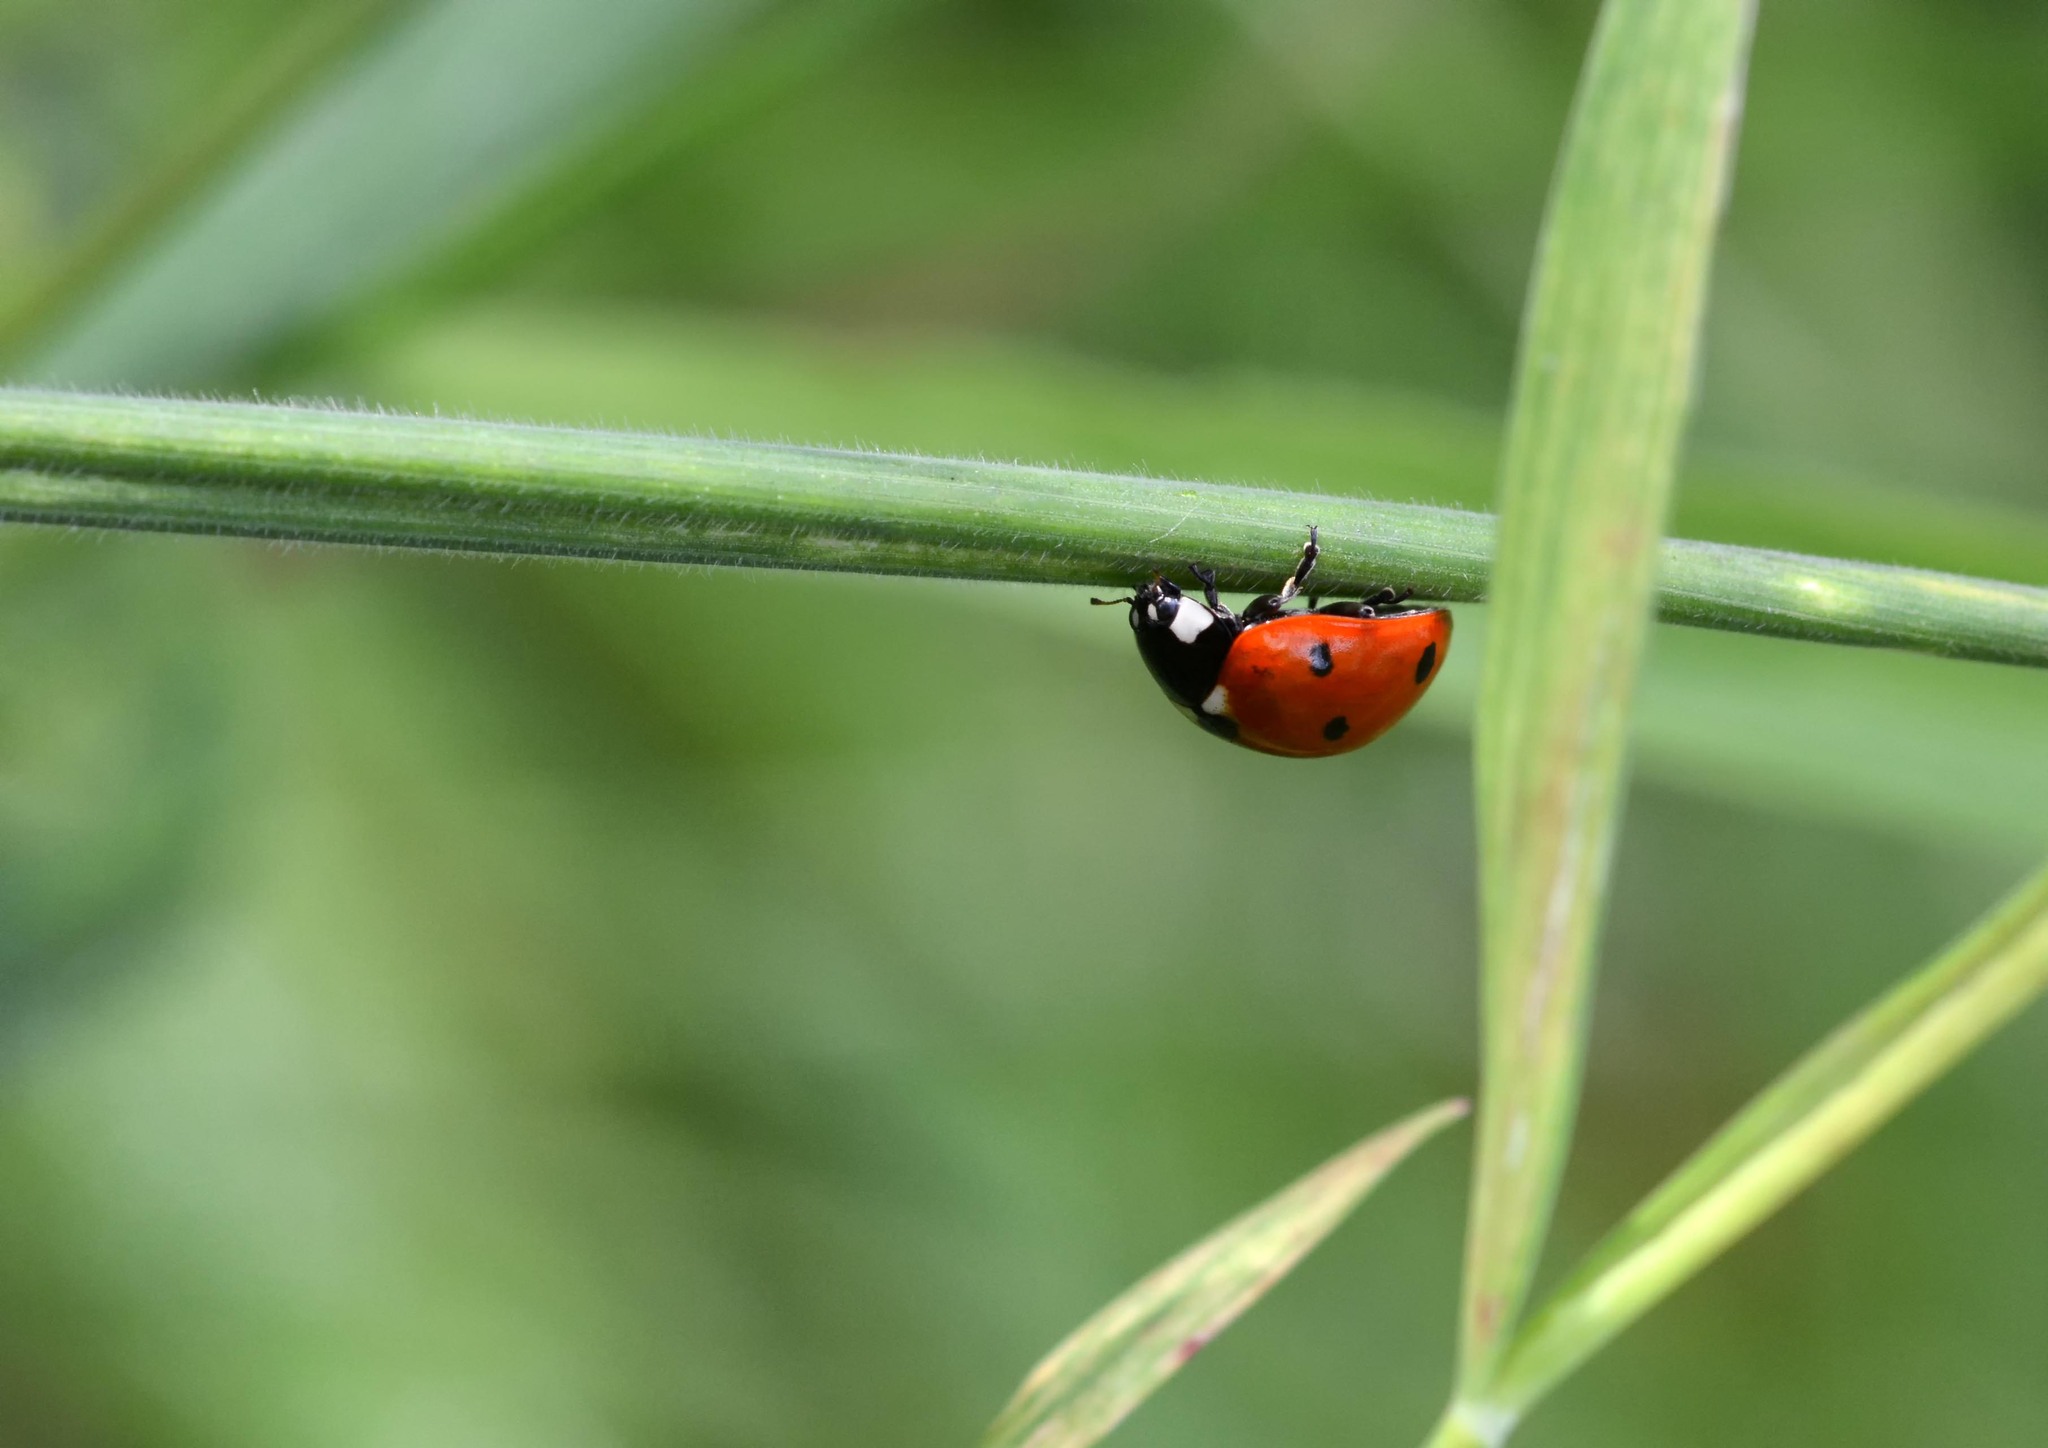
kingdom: Animalia
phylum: Arthropoda
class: Insecta
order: Coleoptera
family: Coccinellidae
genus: Coccinella
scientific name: Coccinella septempunctata
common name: Sevenspotted lady beetle
